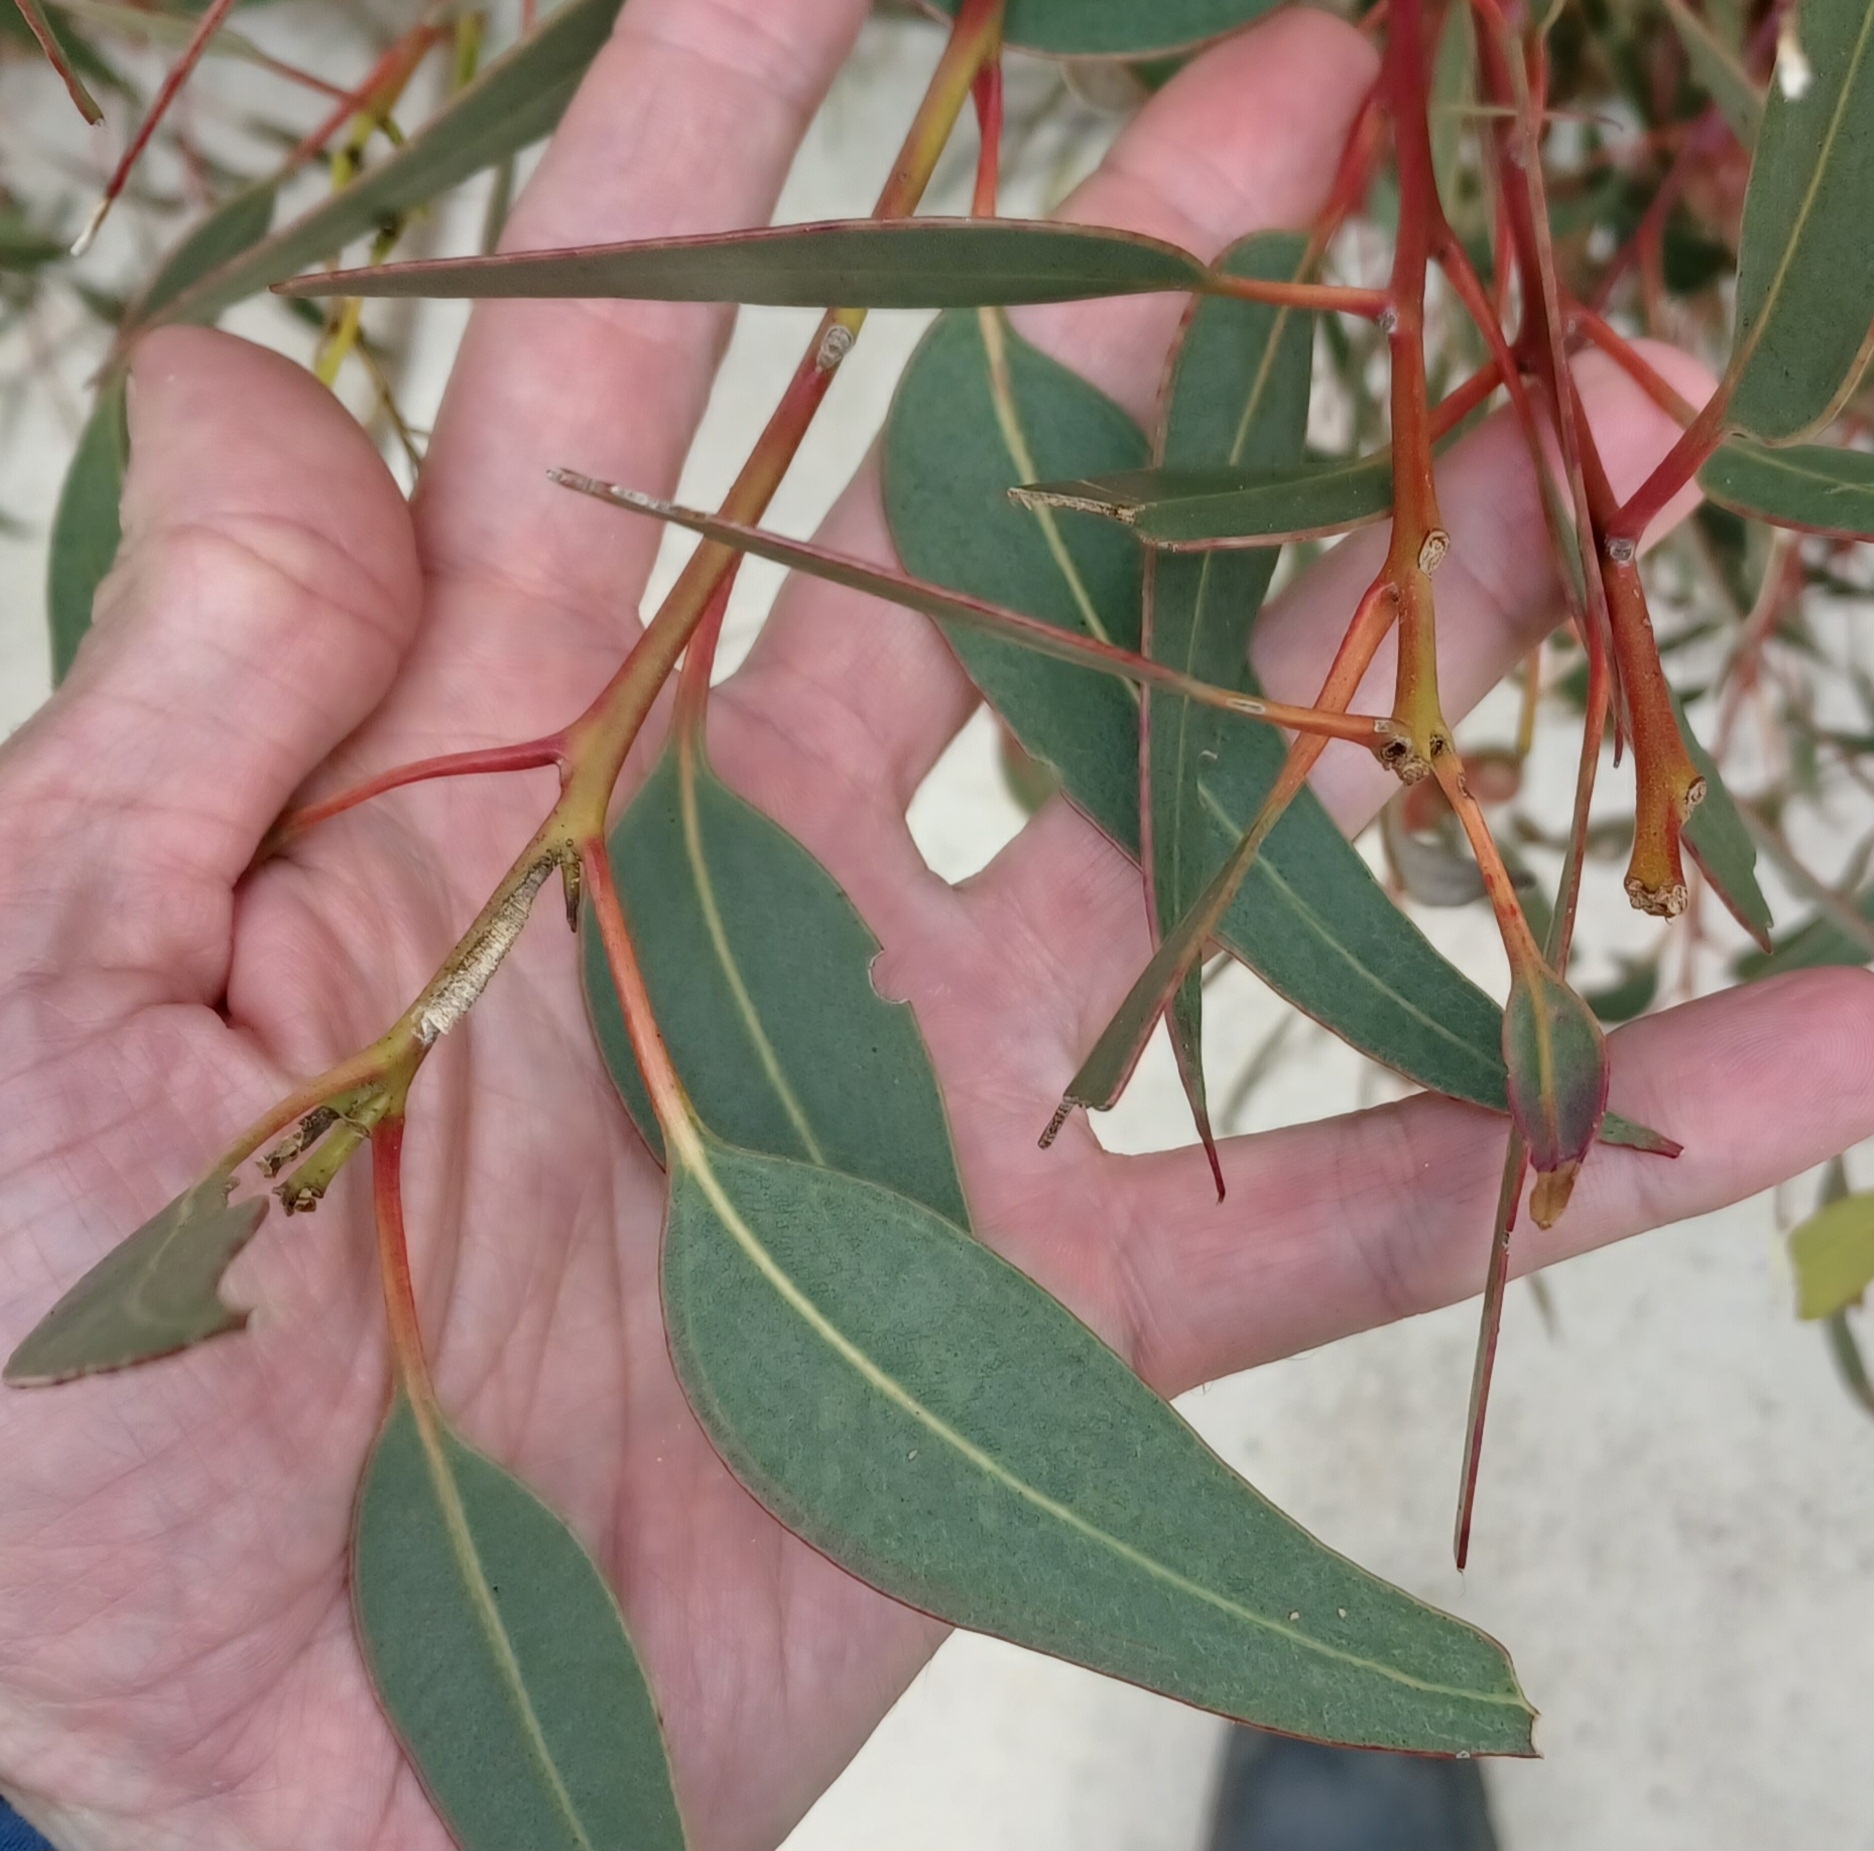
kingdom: Plantae
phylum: Tracheophyta
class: Magnoliopsida
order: Myrtales
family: Myrtaceae
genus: Eucalyptus
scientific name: Eucalyptus cosmophylla
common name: Bog-gum
